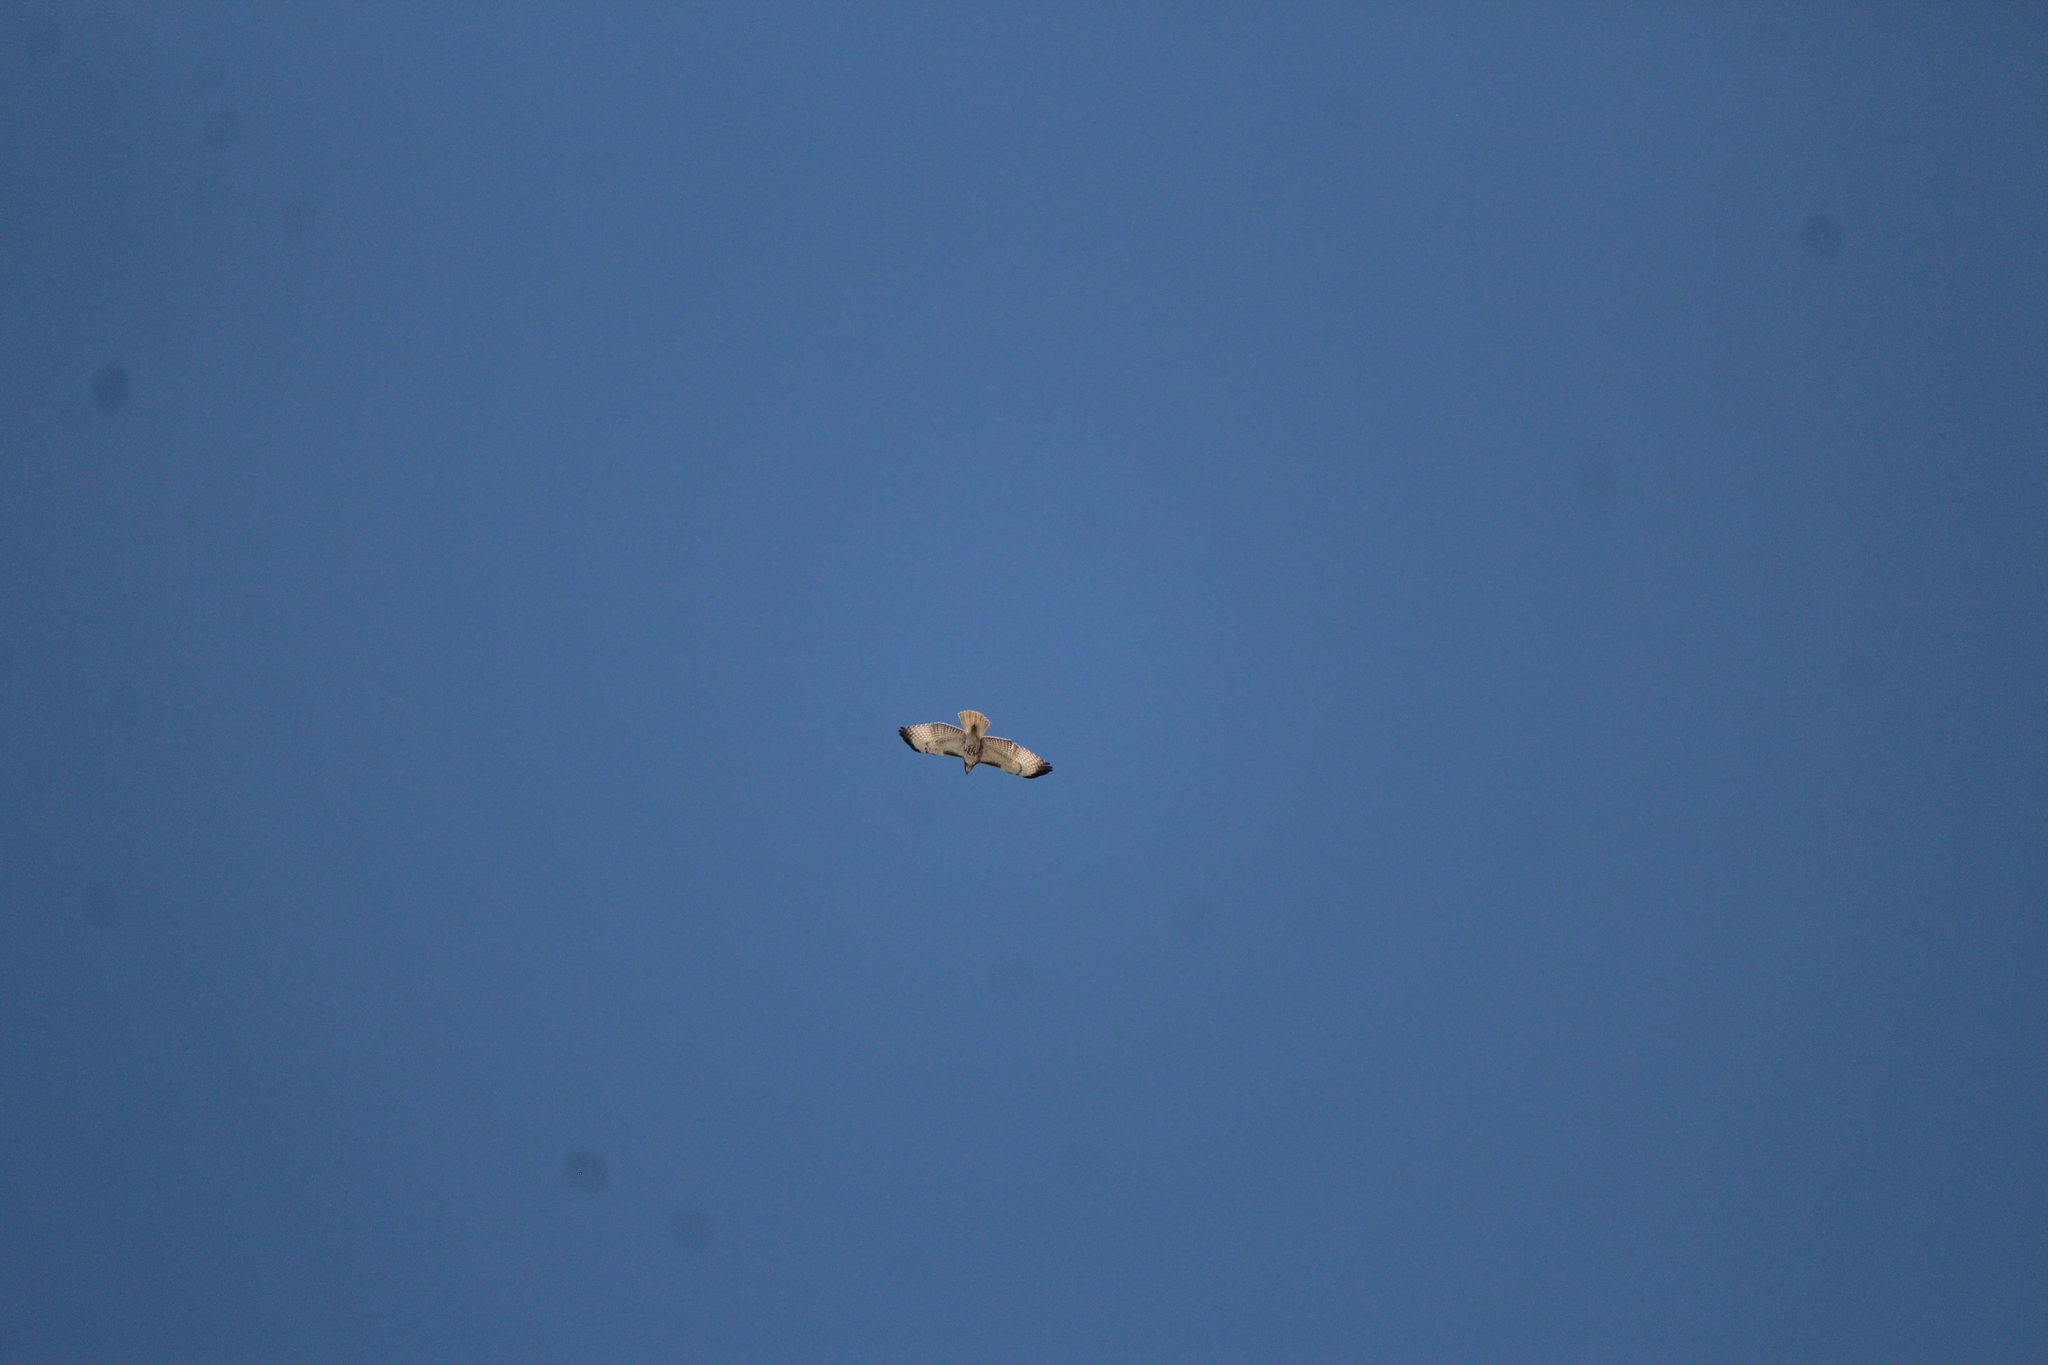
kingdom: Animalia
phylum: Chordata
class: Aves
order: Accipitriformes
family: Accipitridae
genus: Buteo
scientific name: Buteo jamaicensis
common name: Red-tailed hawk
